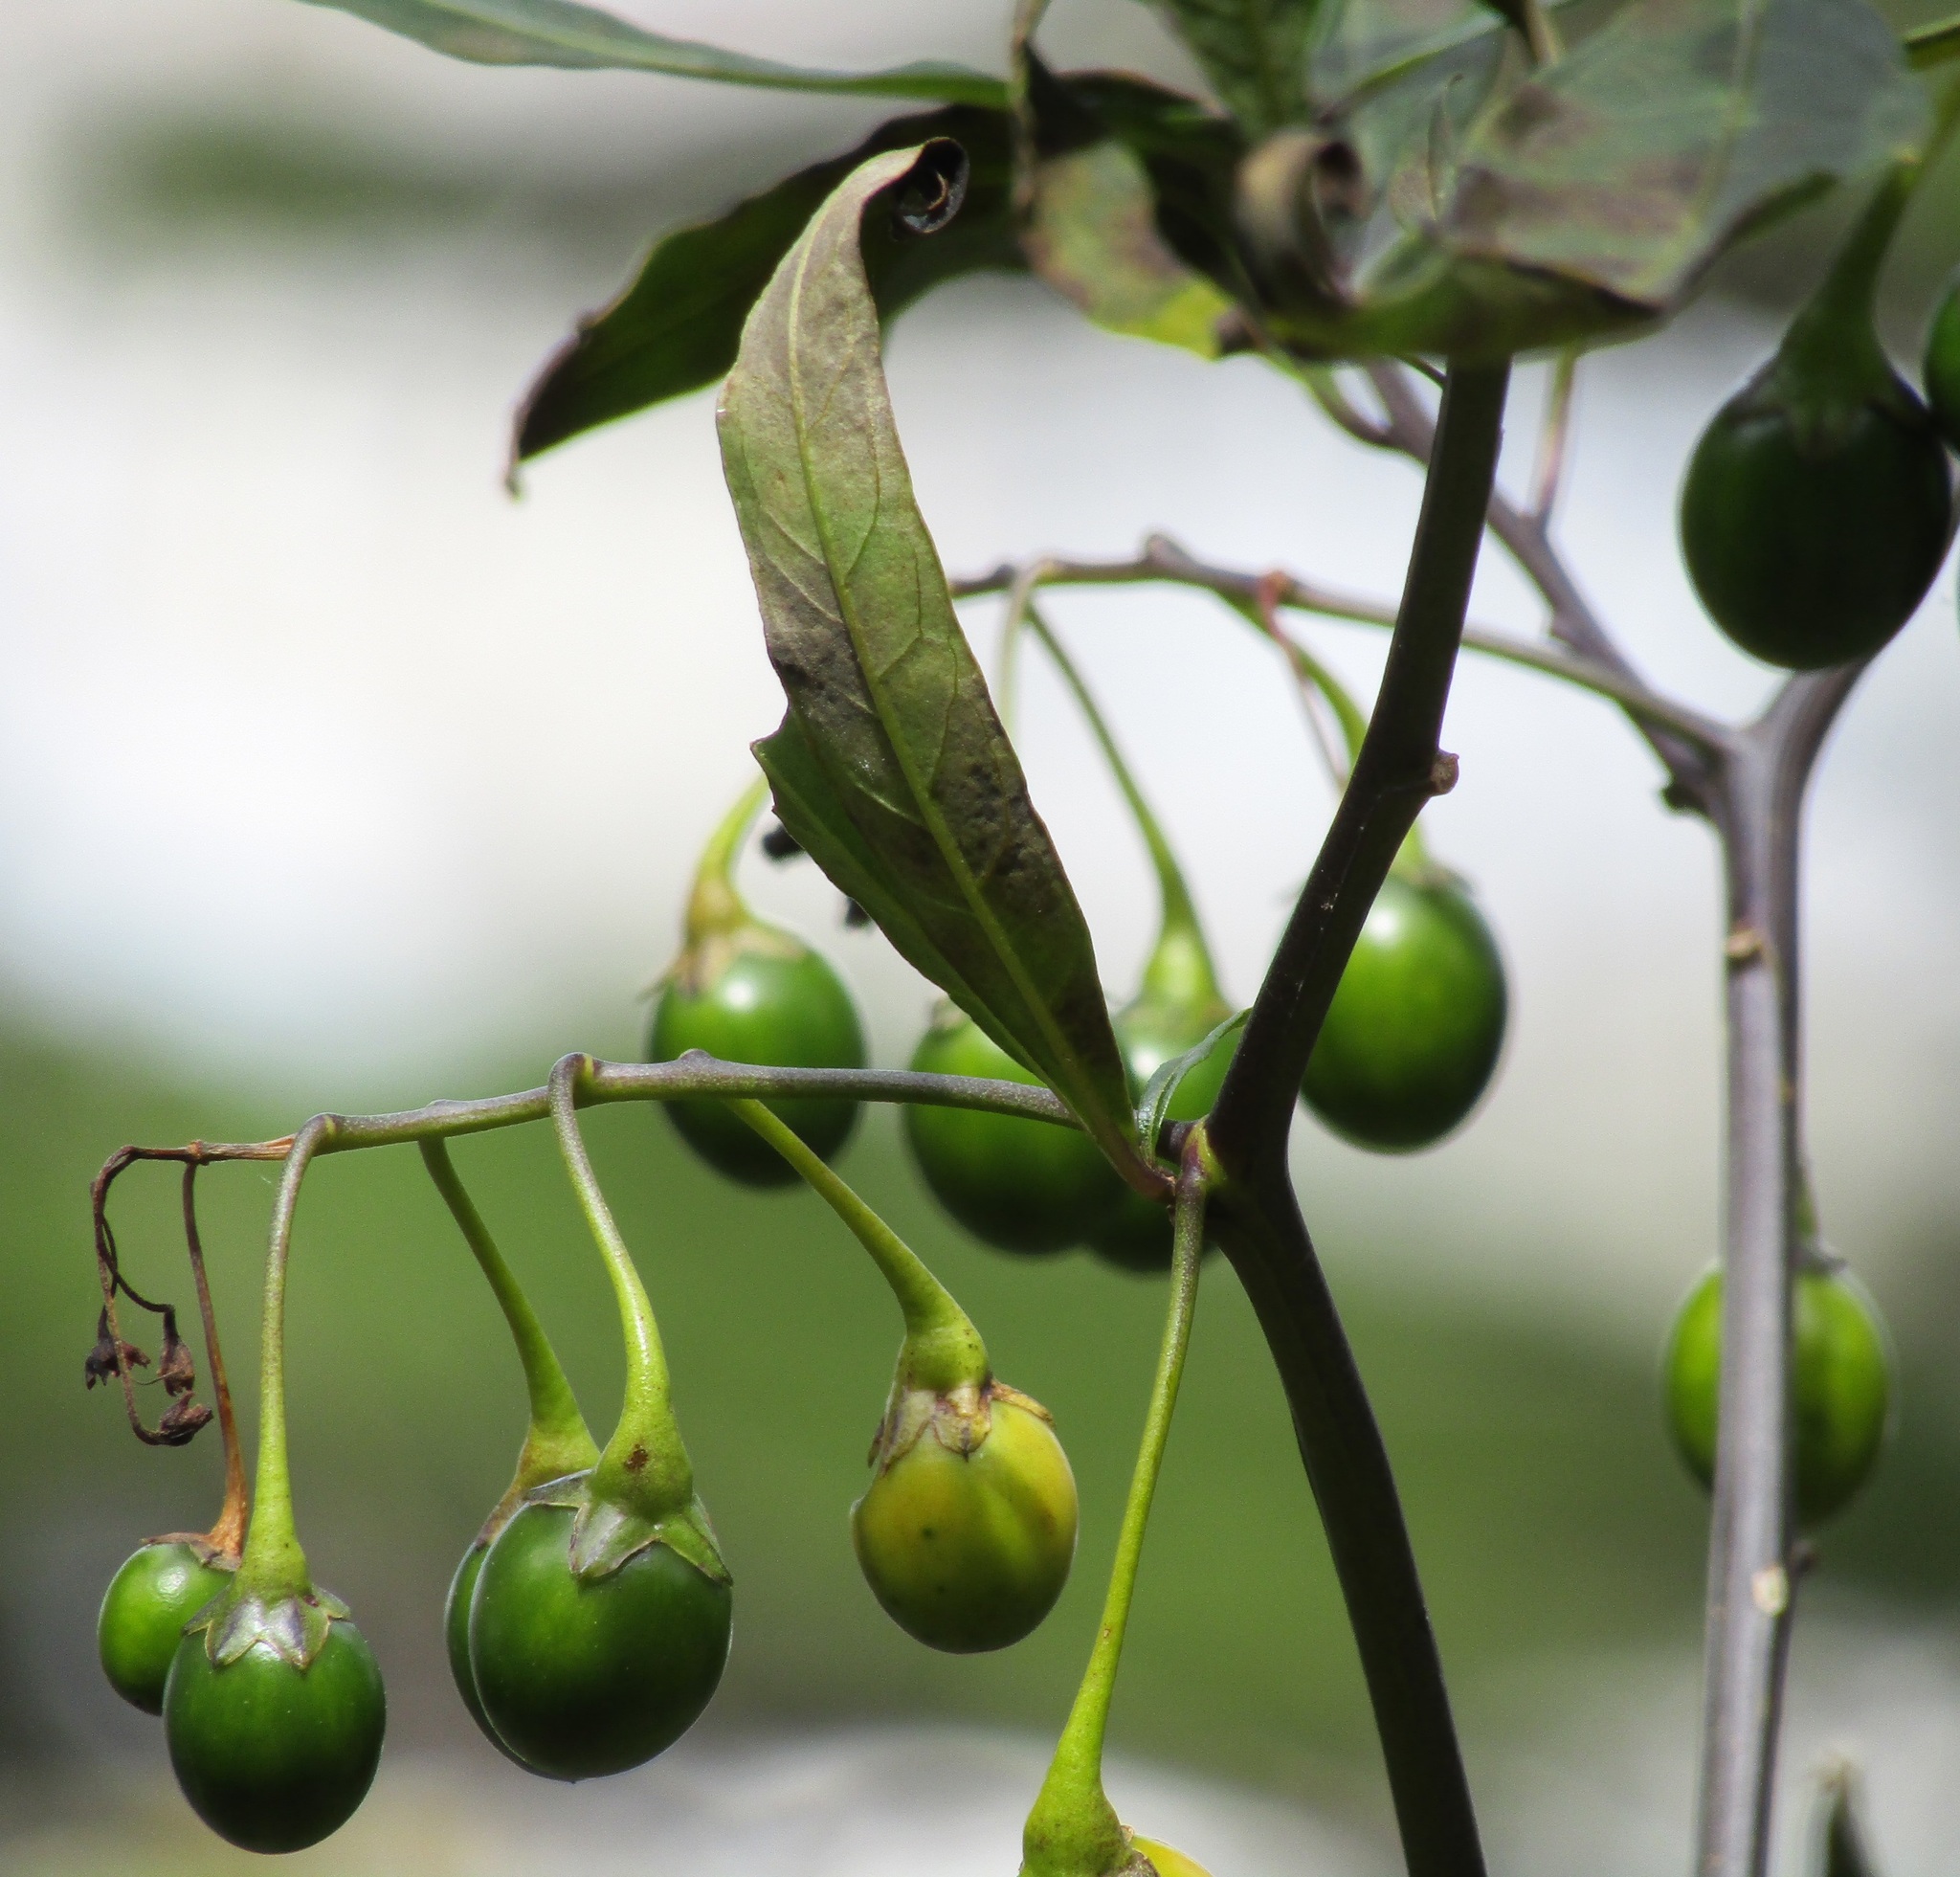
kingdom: Plantae
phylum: Tracheophyta
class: Magnoliopsida
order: Solanales
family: Solanaceae
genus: Solanum
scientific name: Solanum laciniatum
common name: Kangaroo-apple
